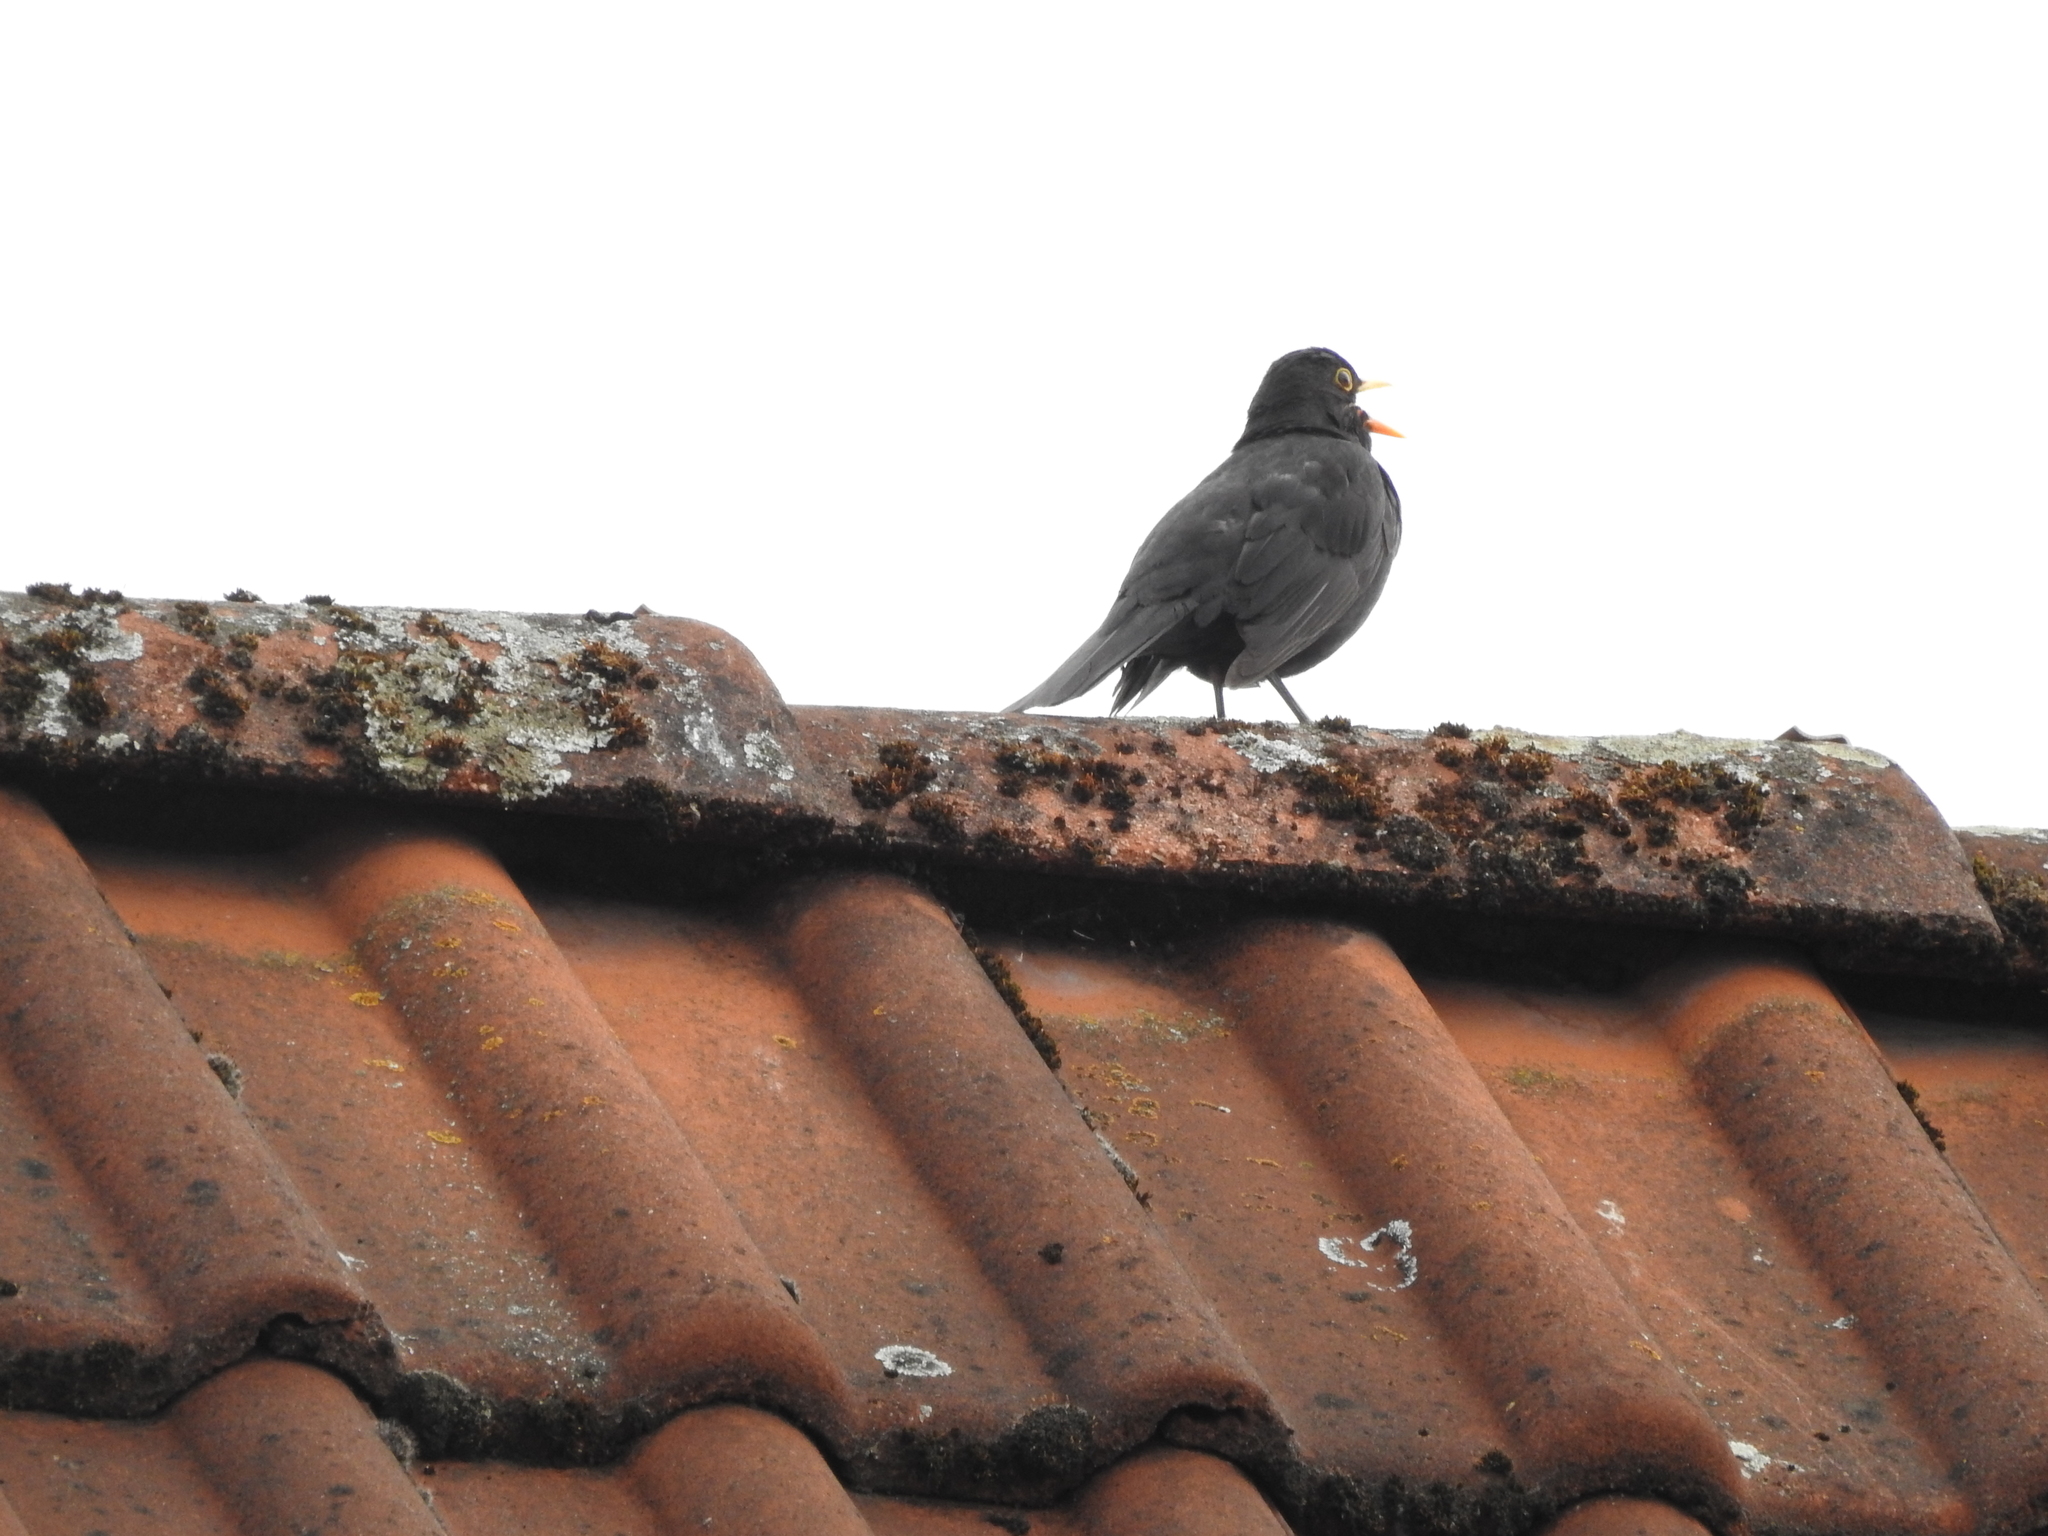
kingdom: Animalia
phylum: Chordata
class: Aves
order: Passeriformes
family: Turdidae
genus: Turdus
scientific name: Turdus merula
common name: Common blackbird
